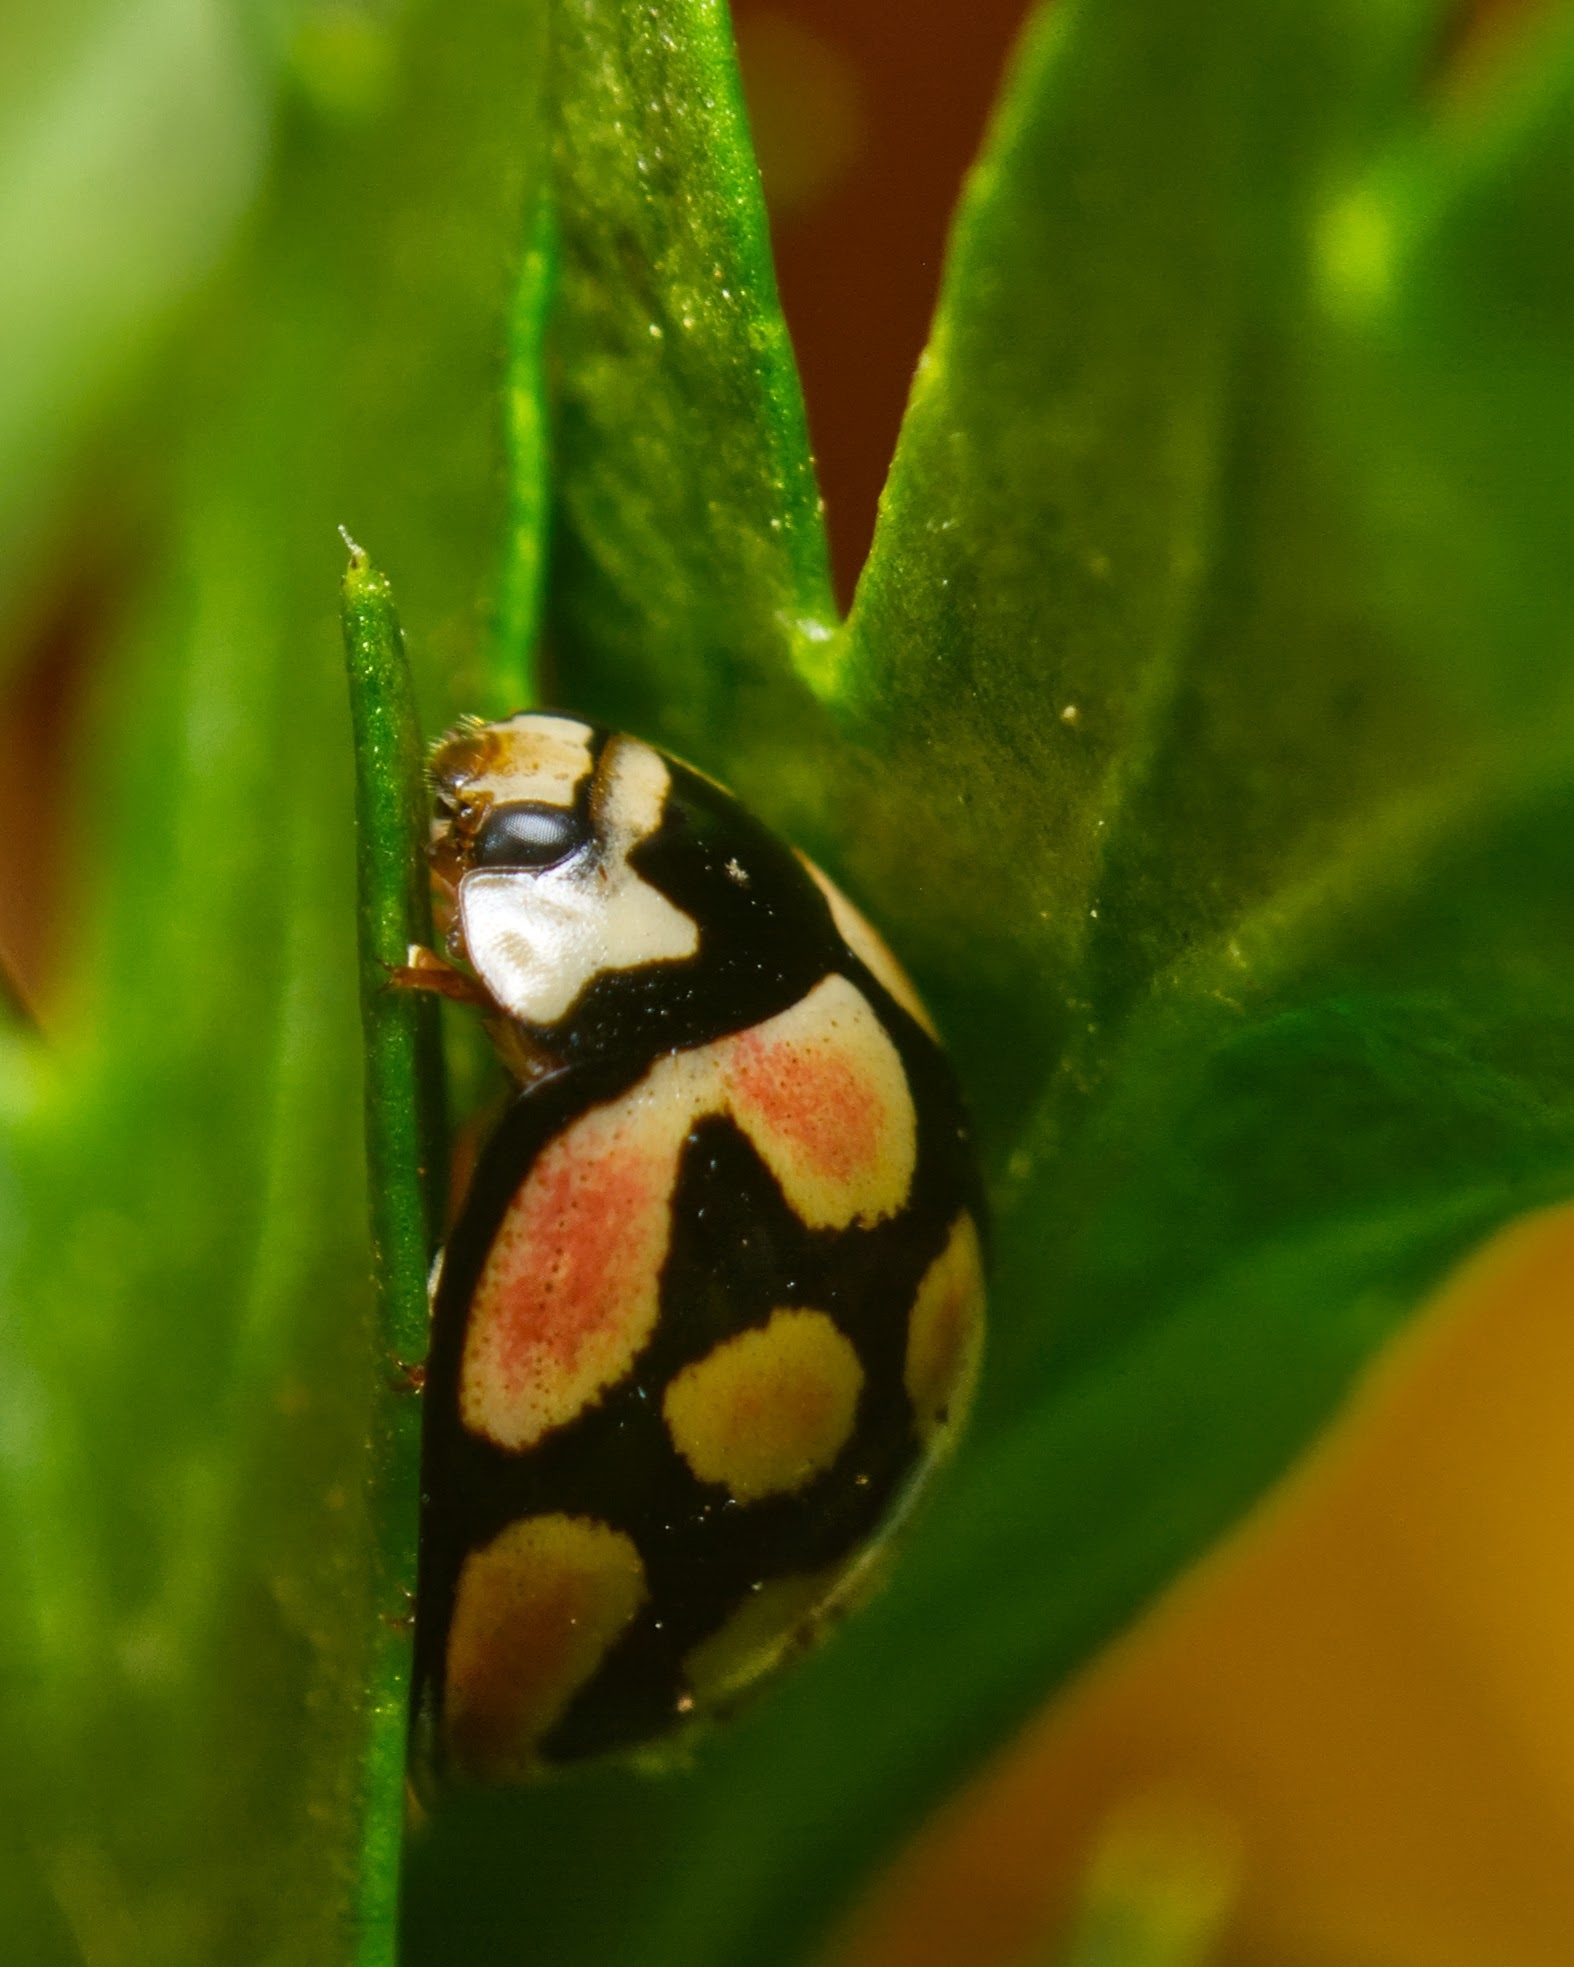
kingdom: Animalia
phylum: Arthropoda
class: Insecta
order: Coleoptera
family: Coccinellidae
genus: Cheilomenes
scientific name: Cheilomenes lunata
